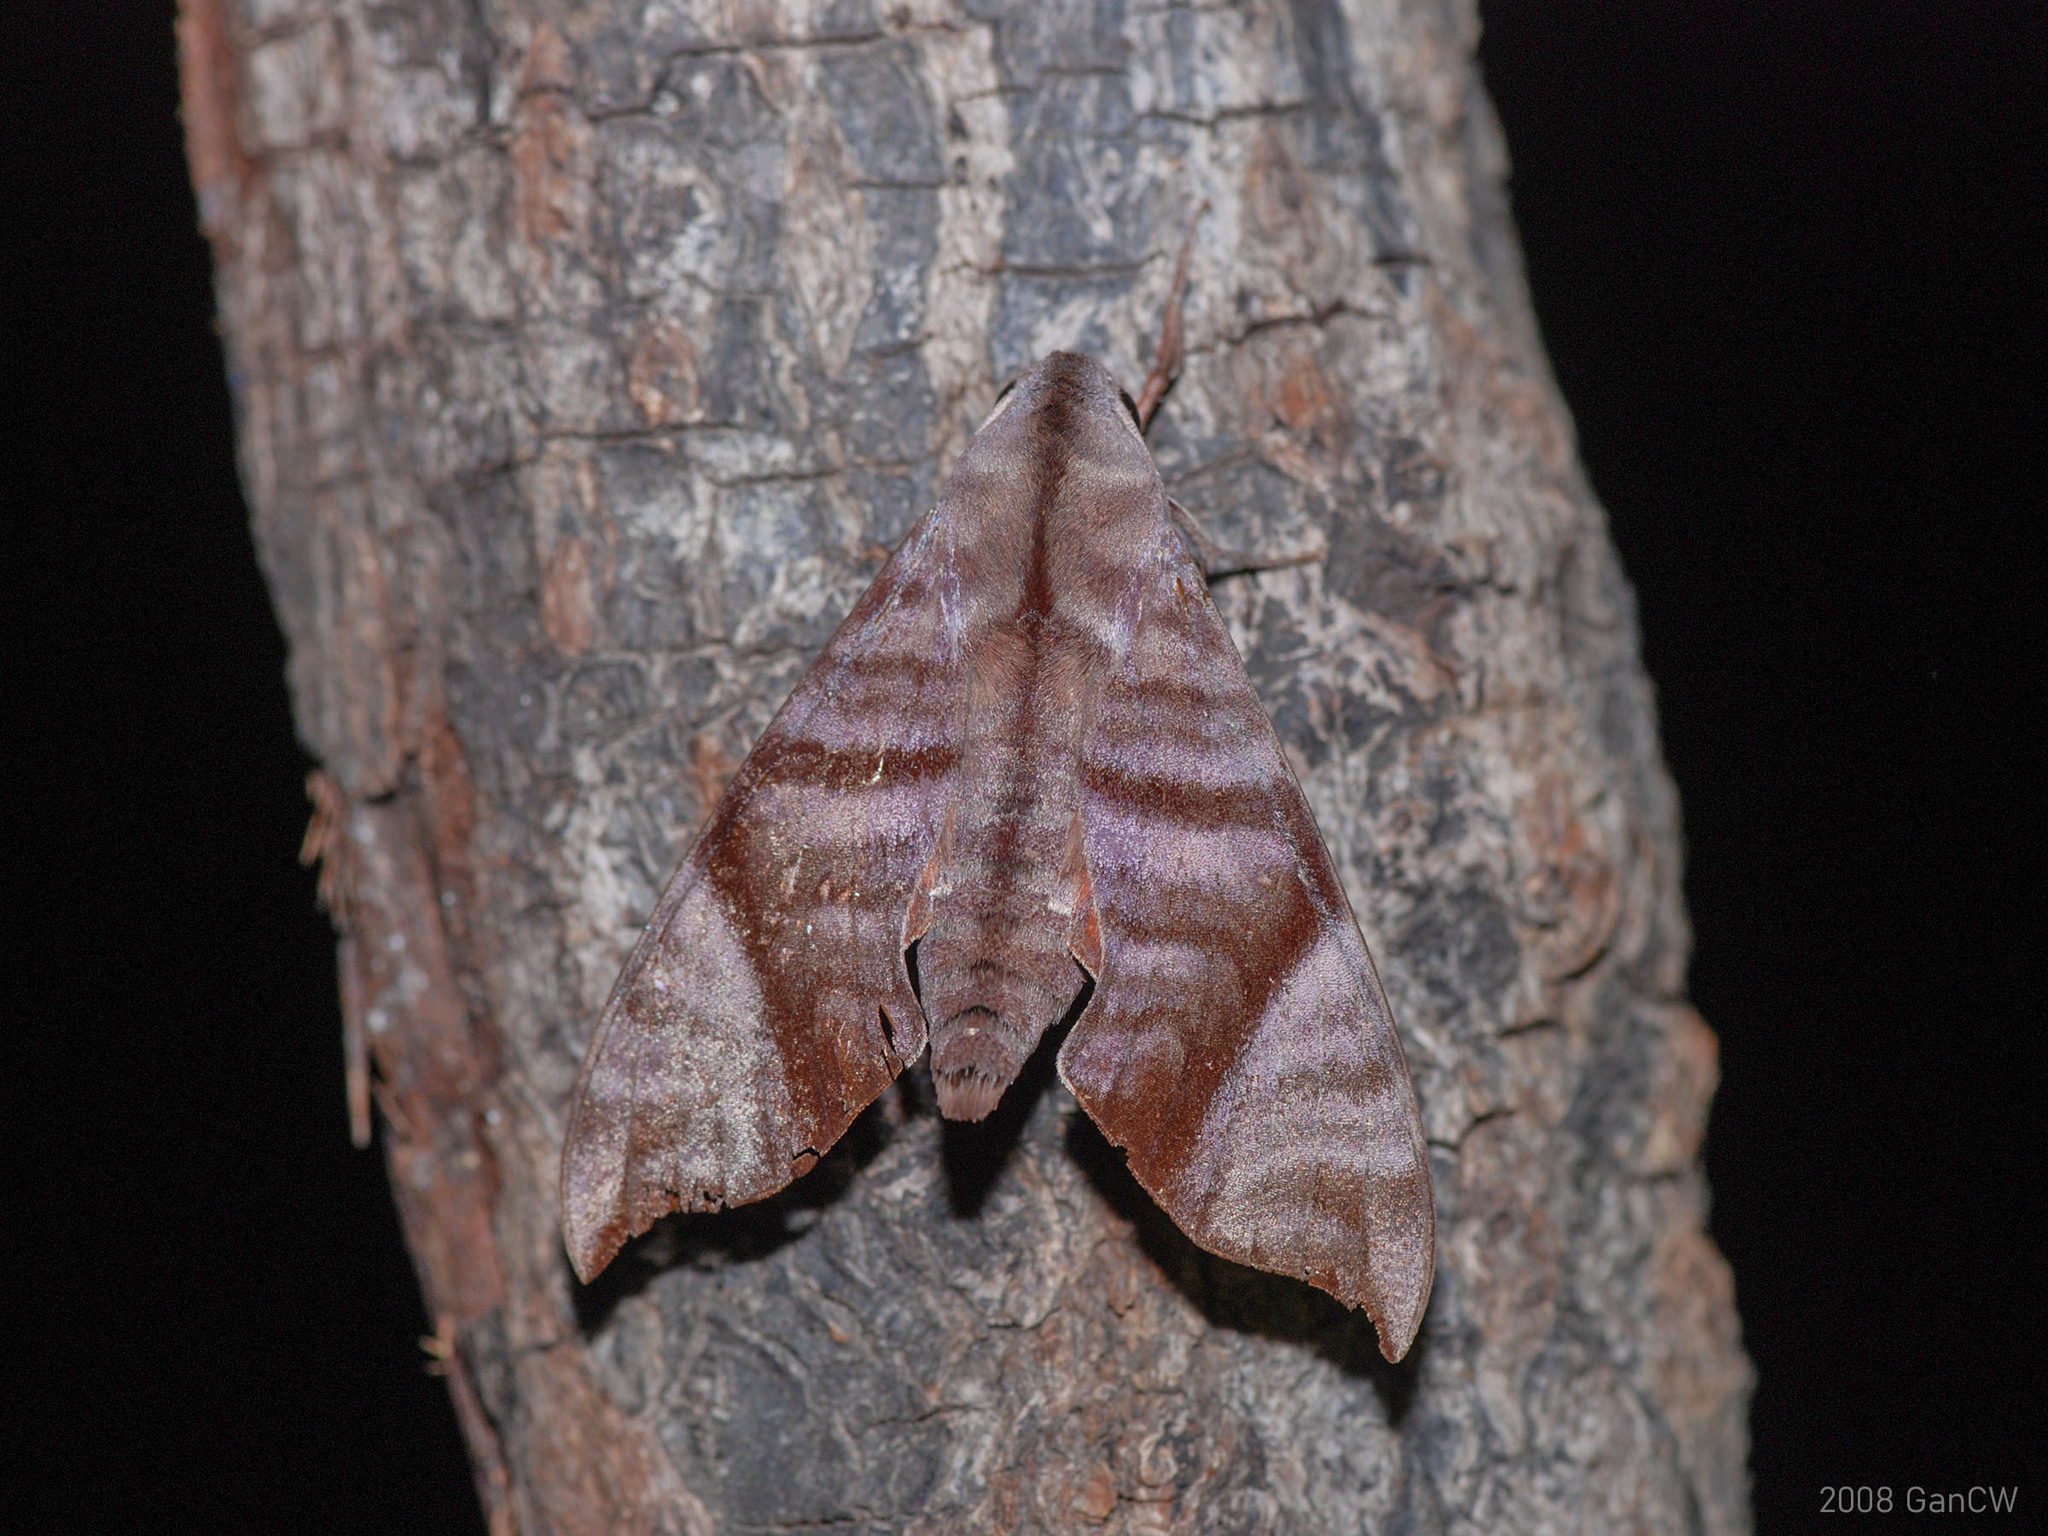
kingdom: Animalia
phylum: Arthropoda
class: Insecta
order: Lepidoptera
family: Sphingidae
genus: Dahira
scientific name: Dahira falcata
